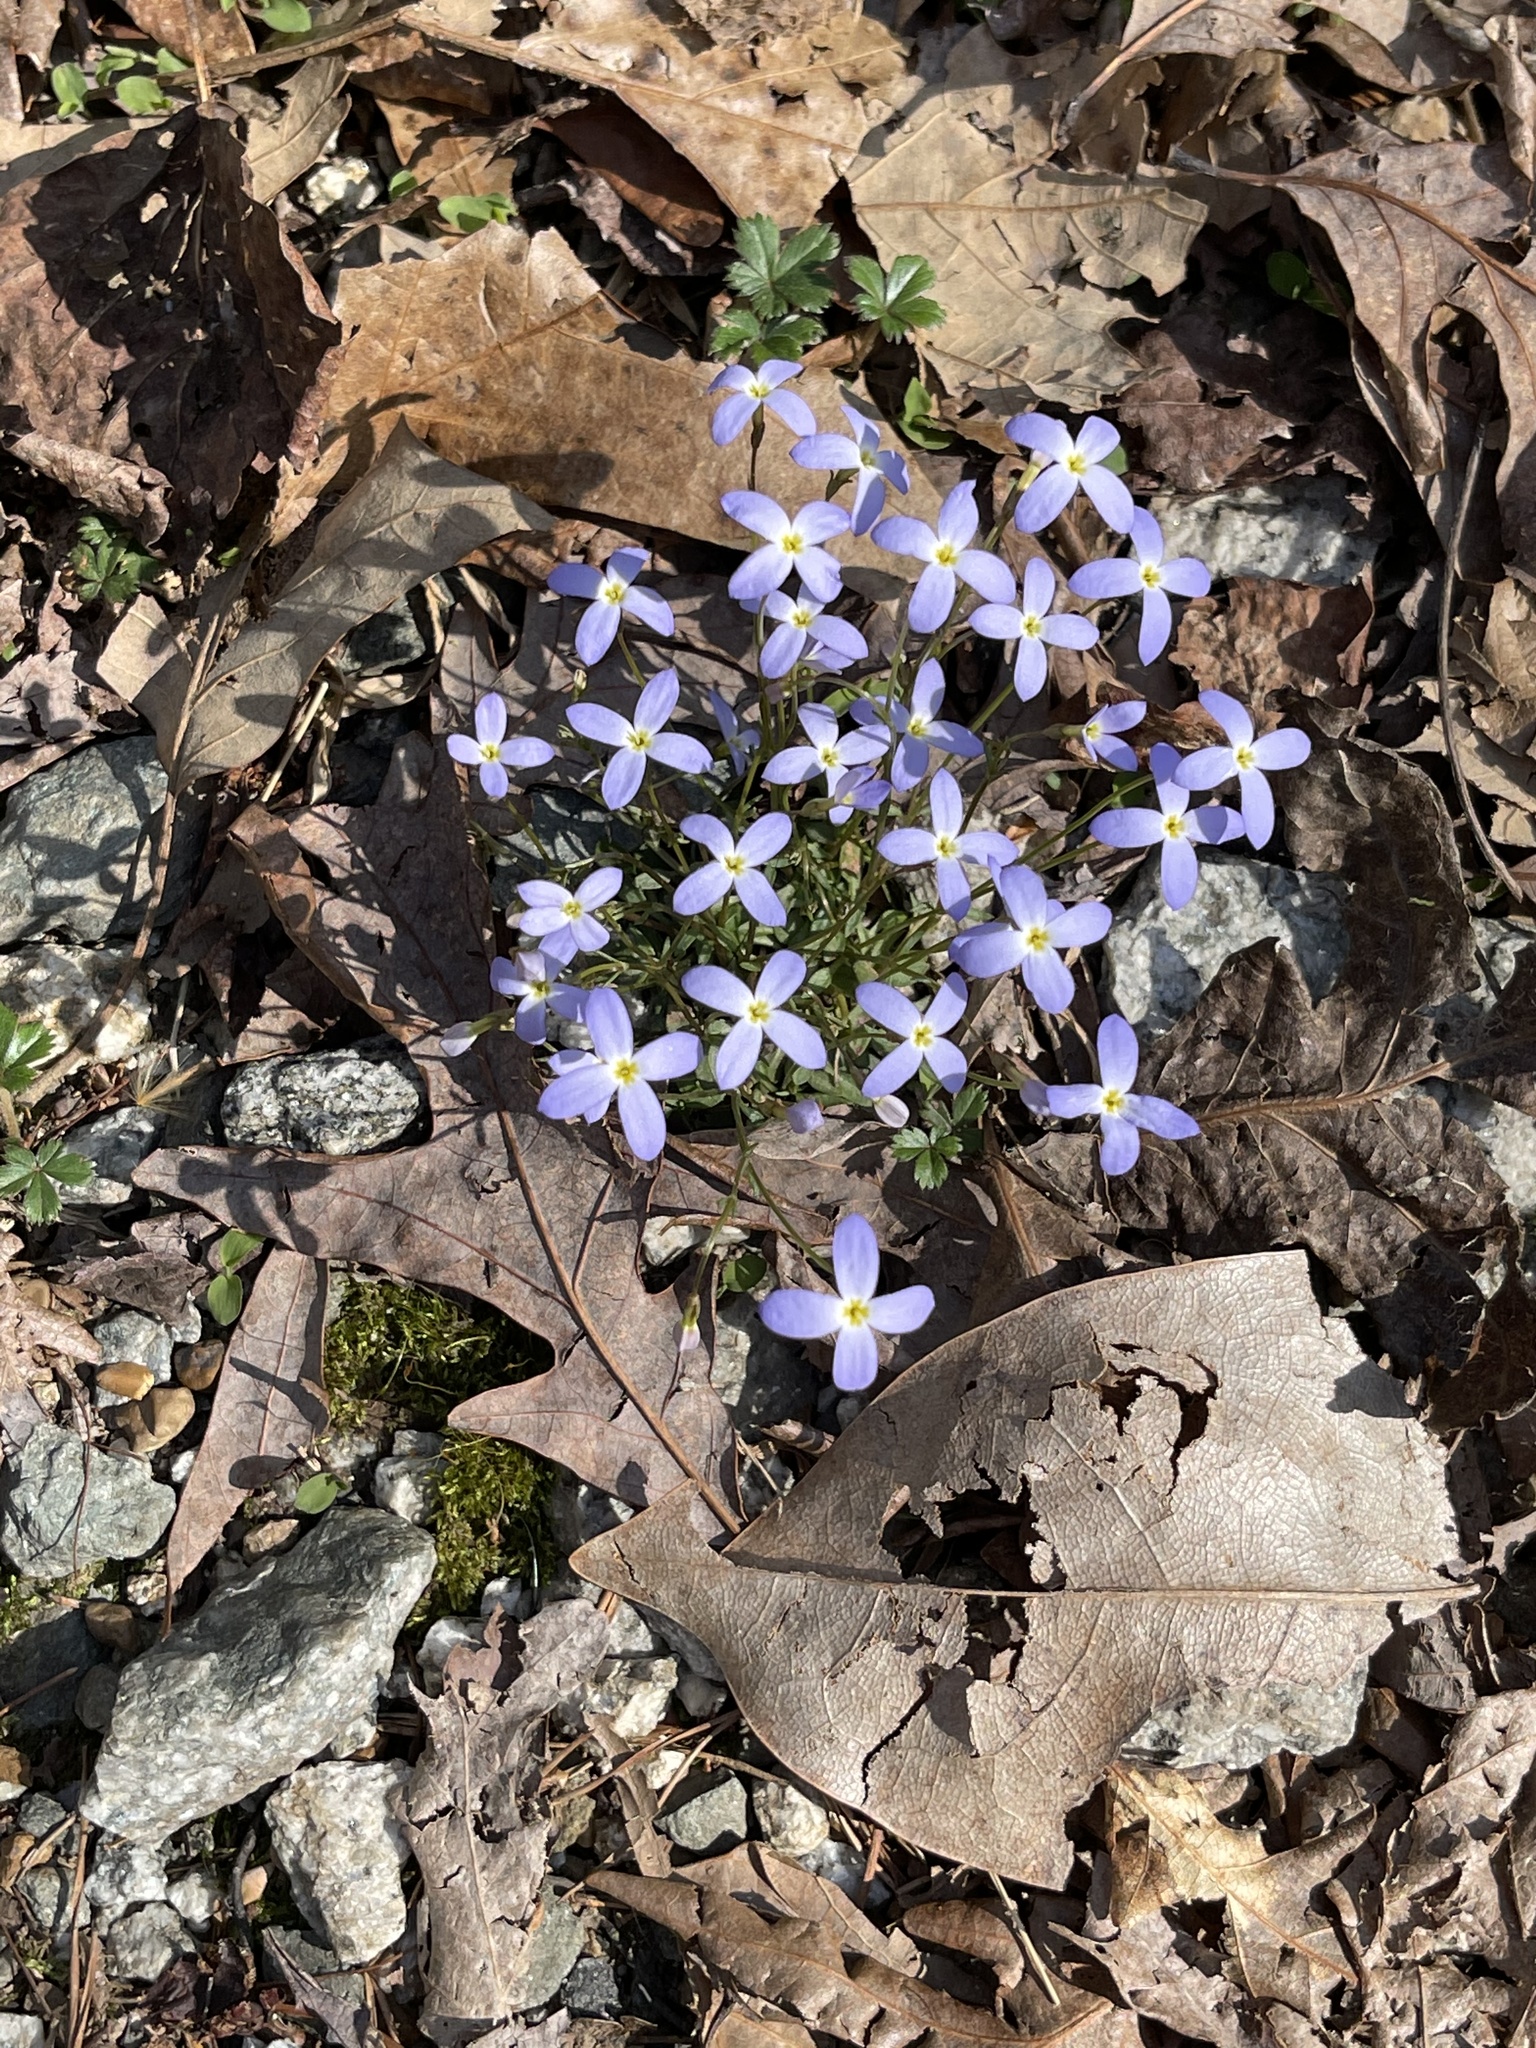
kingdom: Plantae
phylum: Tracheophyta
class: Magnoliopsida
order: Gentianales
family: Rubiaceae
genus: Houstonia
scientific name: Houstonia caerulea
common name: Bluets
